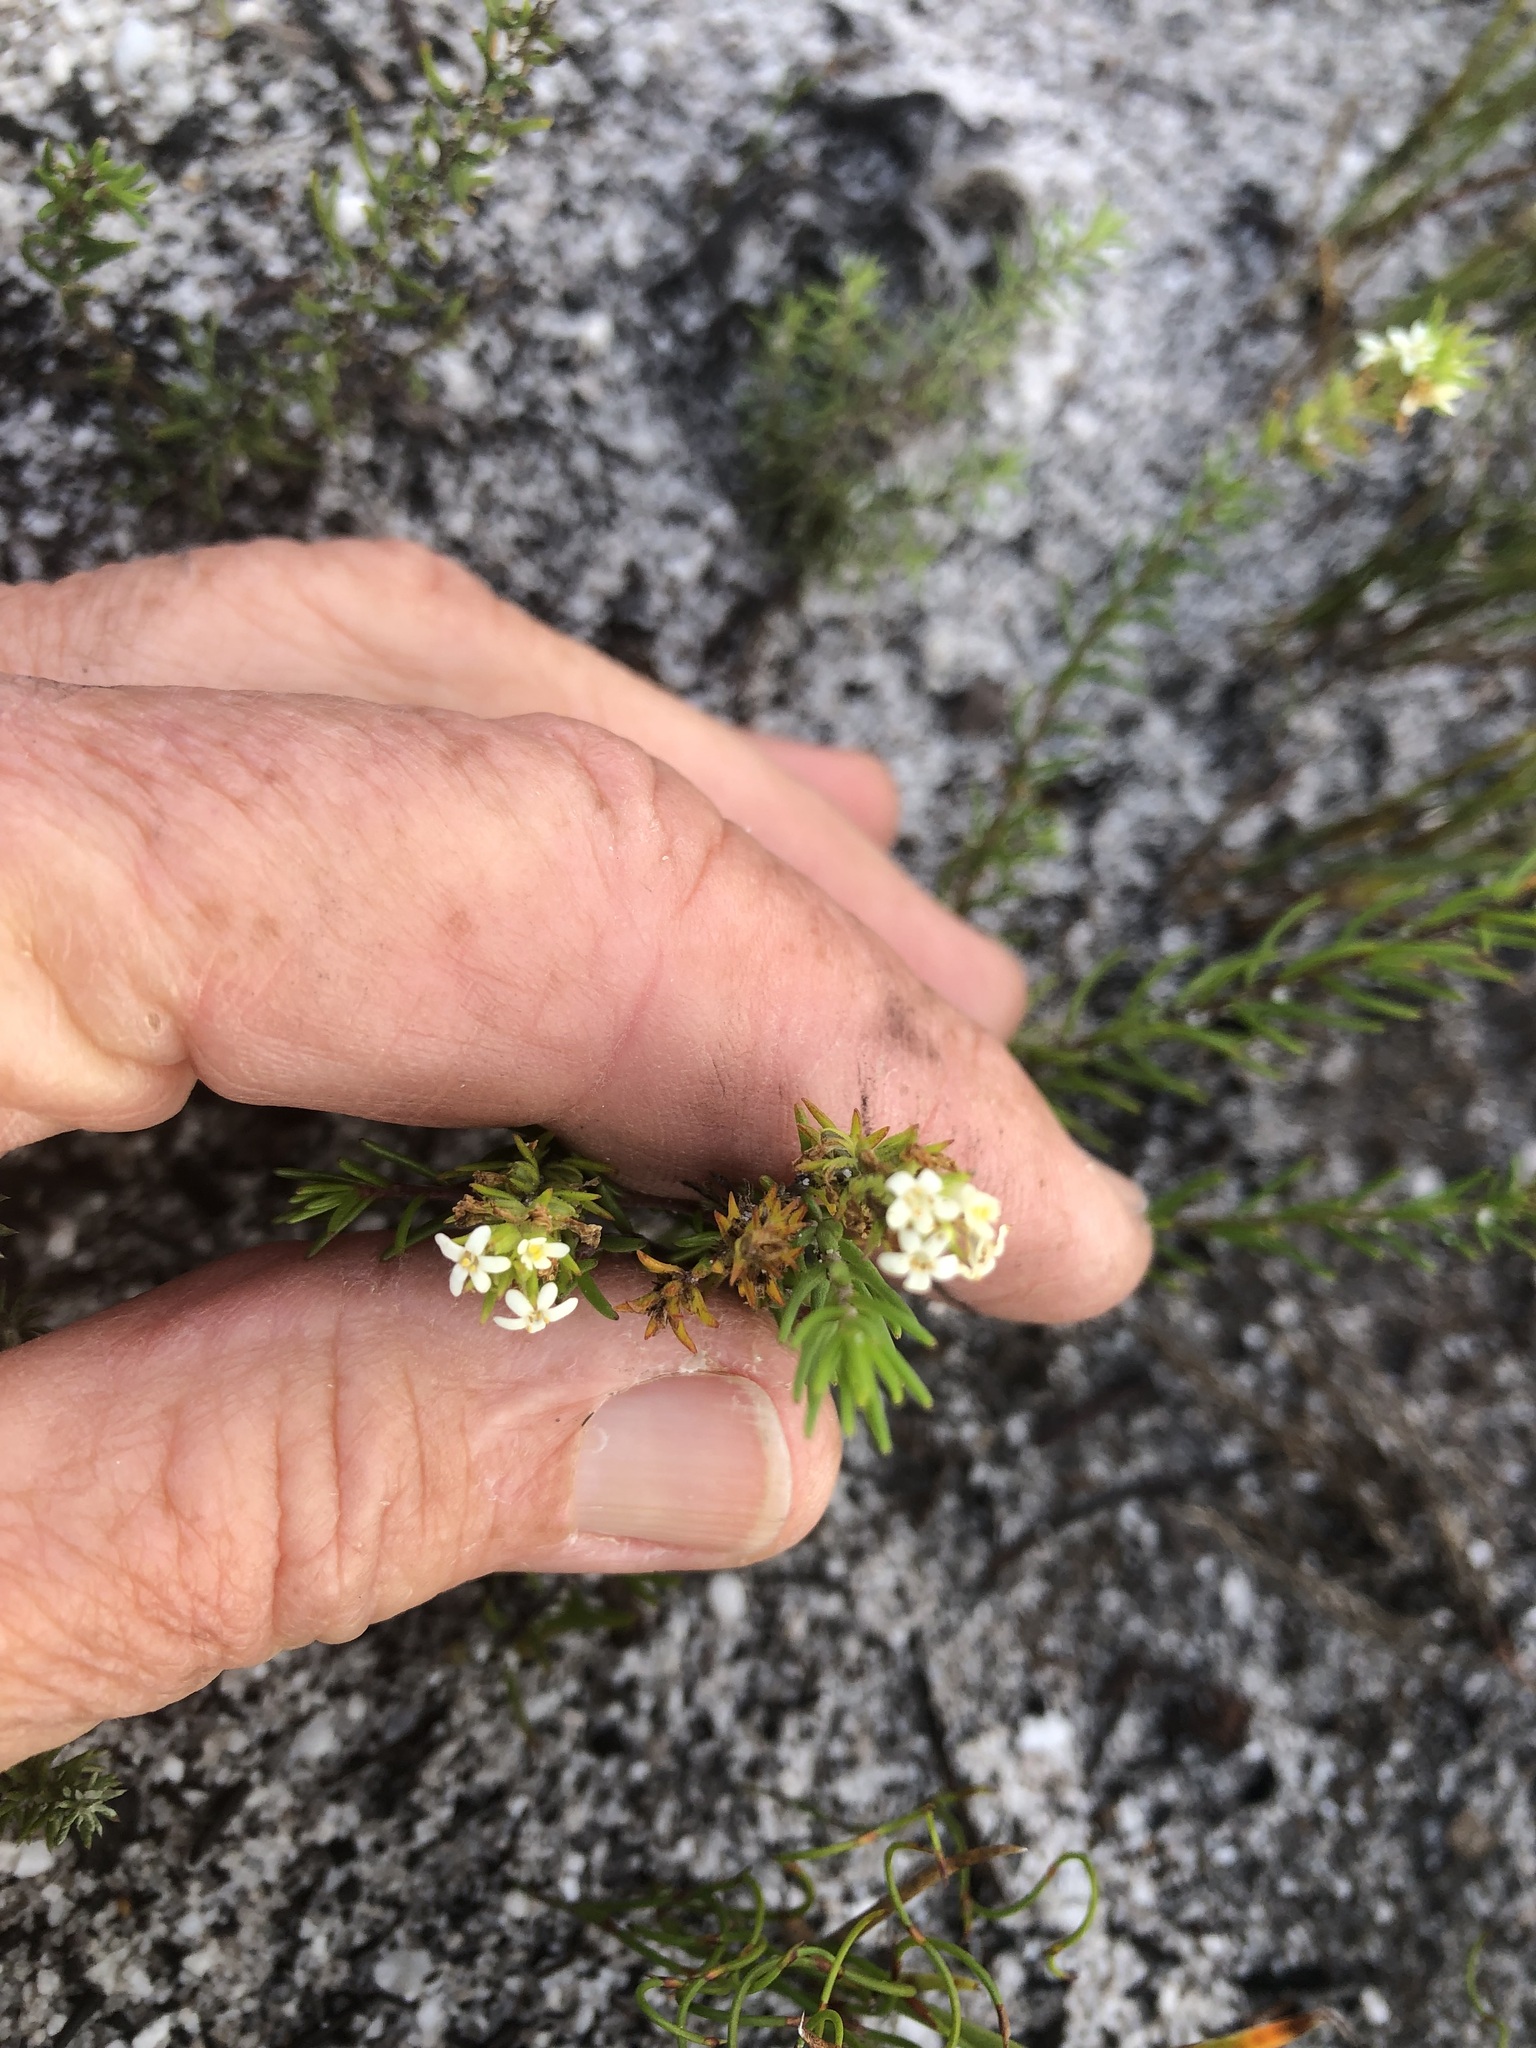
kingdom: Plantae
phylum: Tracheophyta
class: Magnoliopsida
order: Lamiales
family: Scrophulariaceae
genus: Selago
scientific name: Selago polystachya
